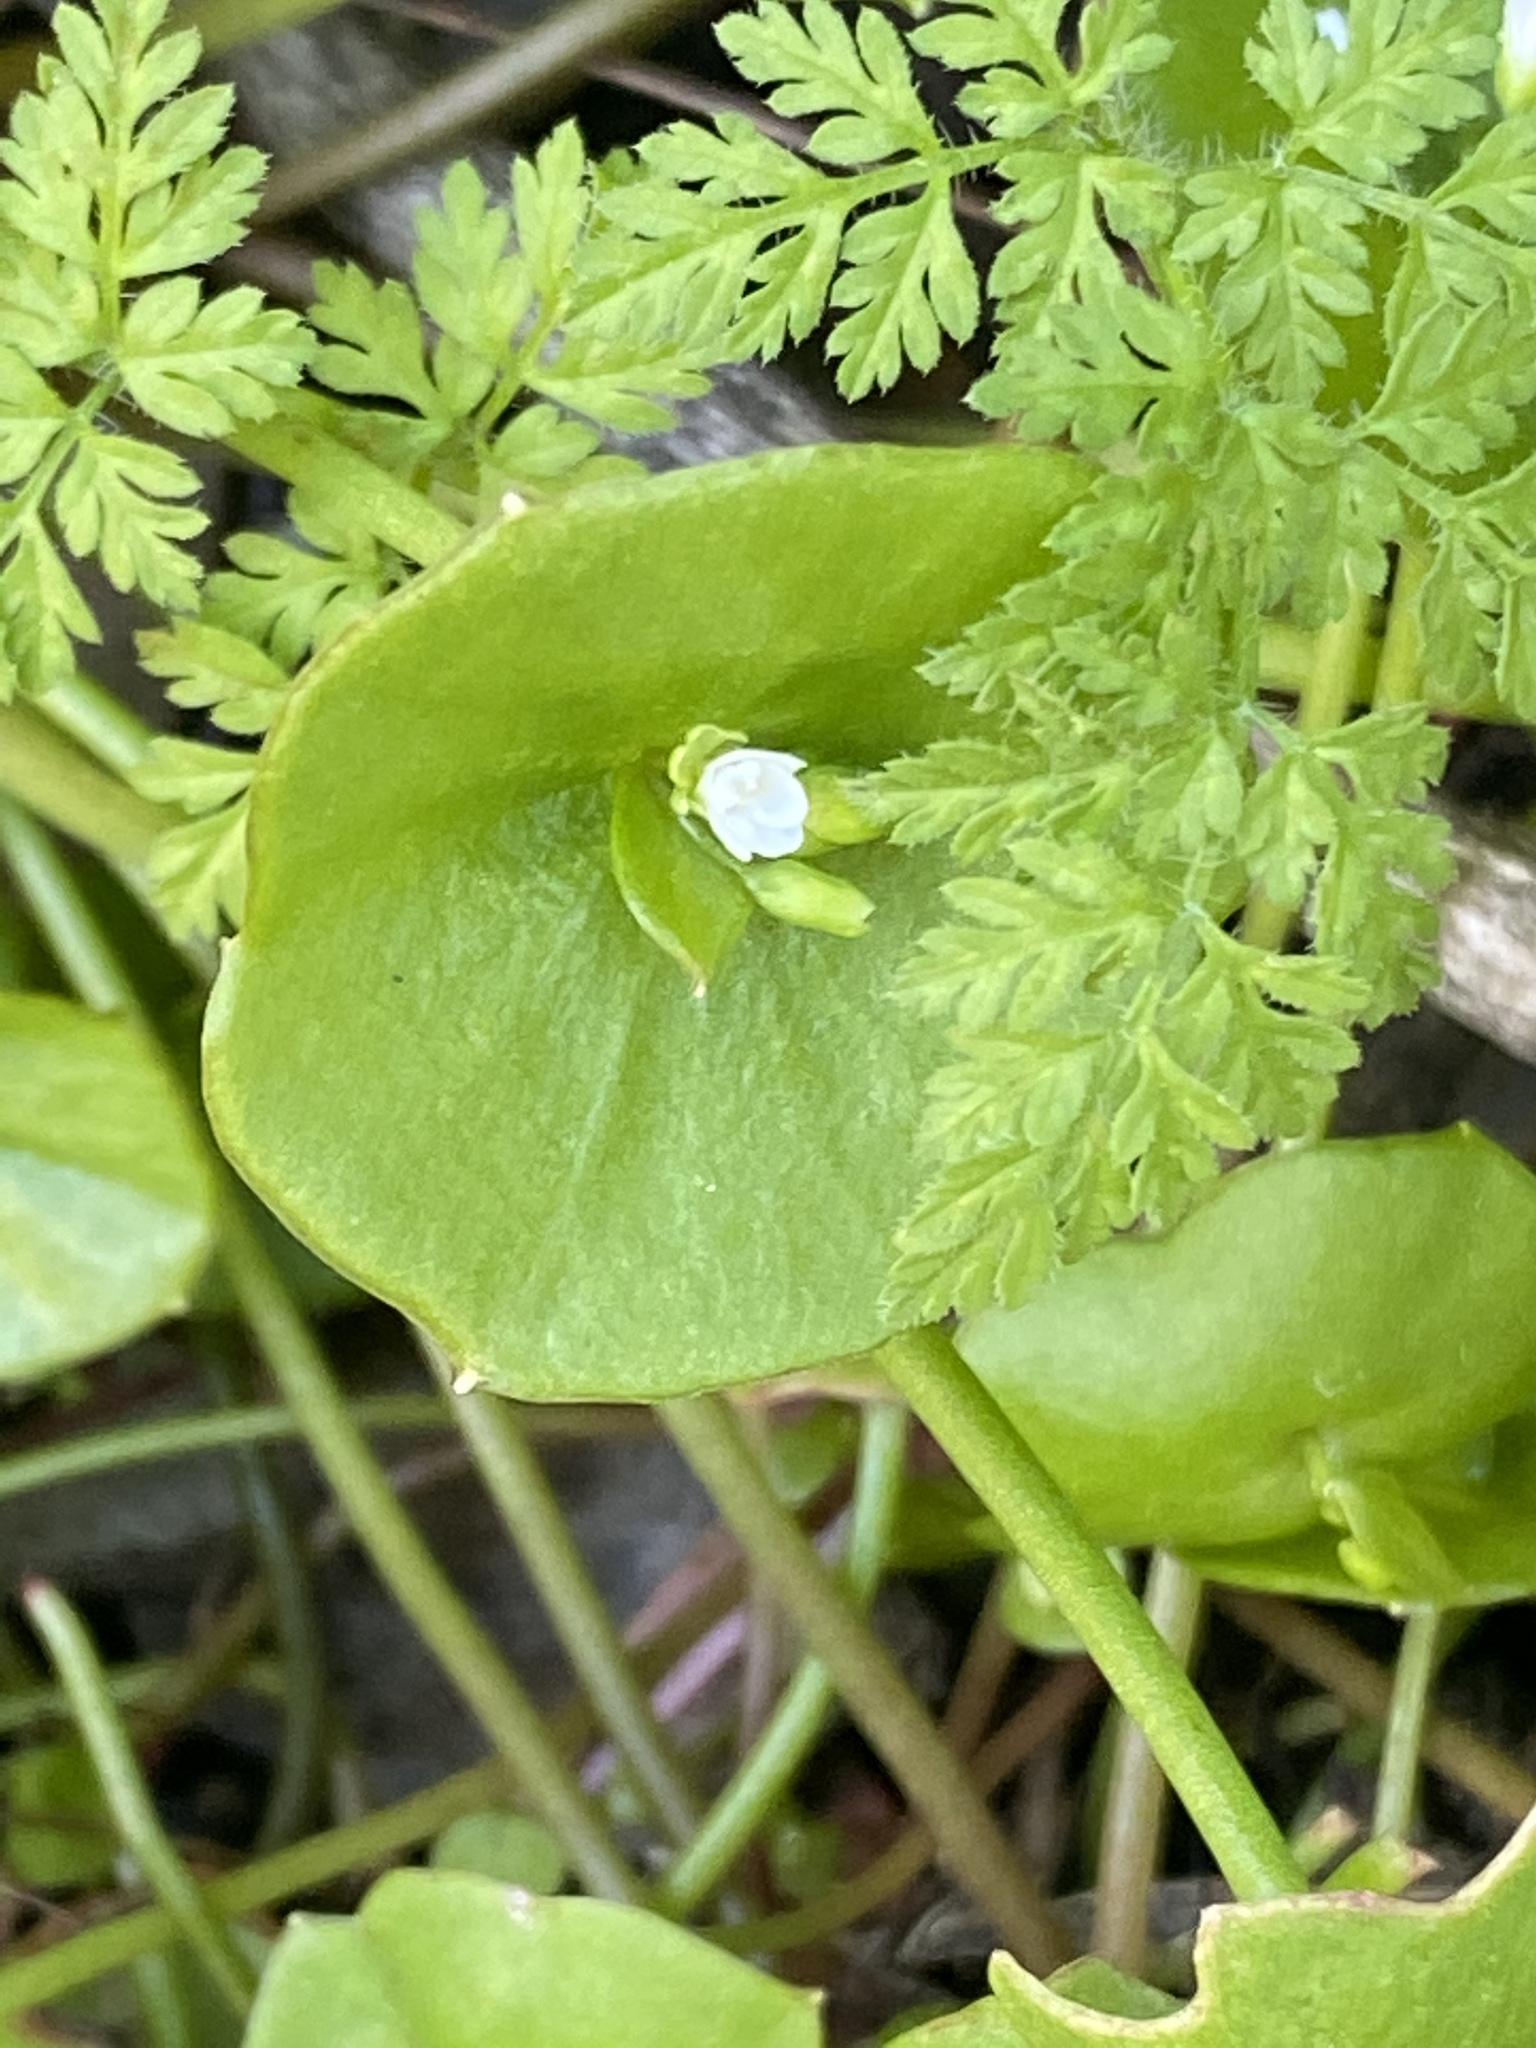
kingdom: Plantae
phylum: Tracheophyta
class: Magnoliopsida
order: Caryophyllales
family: Montiaceae
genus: Claytonia
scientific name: Claytonia perfoliata
